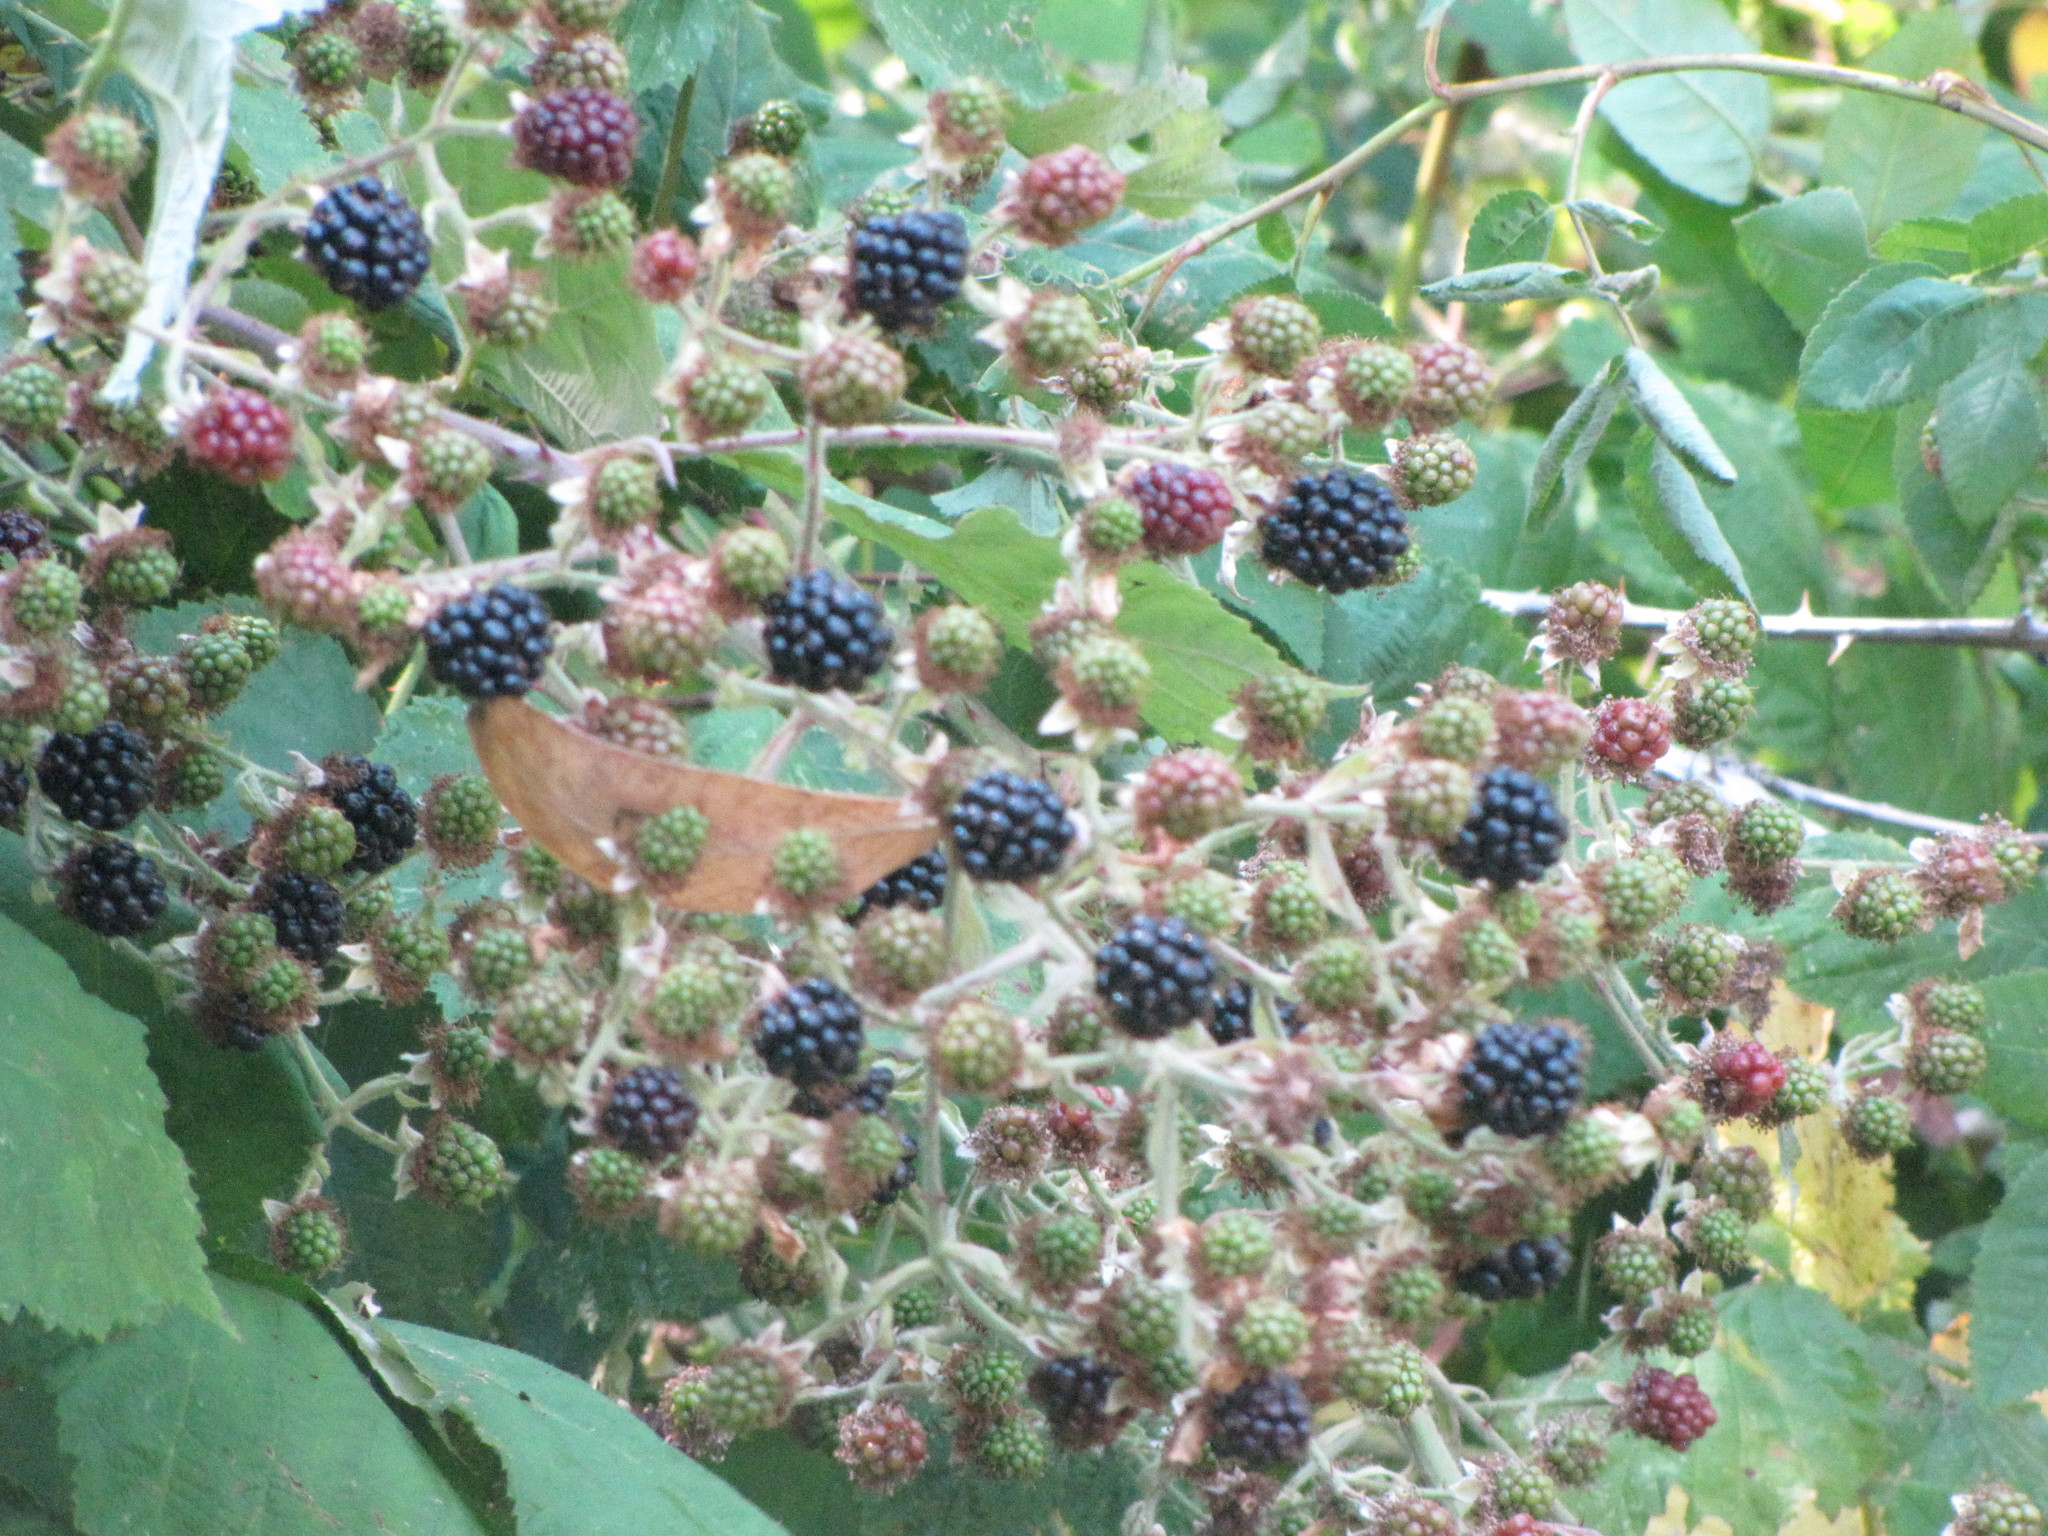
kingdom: Plantae
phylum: Tracheophyta
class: Magnoliopsida
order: Rosales
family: Rosaceae
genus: Rubus
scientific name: Rubus bifrons
